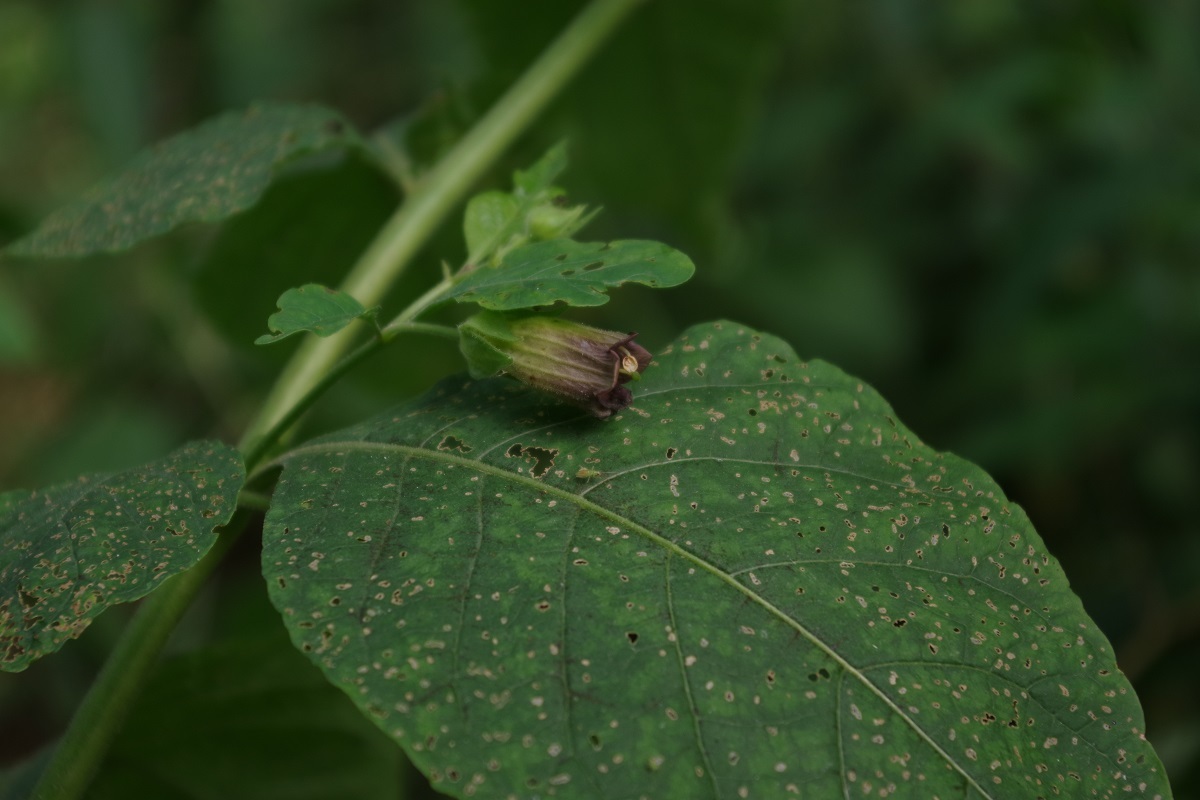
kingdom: Plantae
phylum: Tracheophyta
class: Magnoliopsida
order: Solanales
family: Solanaceae
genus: Atropa
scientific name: Atropa belladonna
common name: Deadly nightshade
